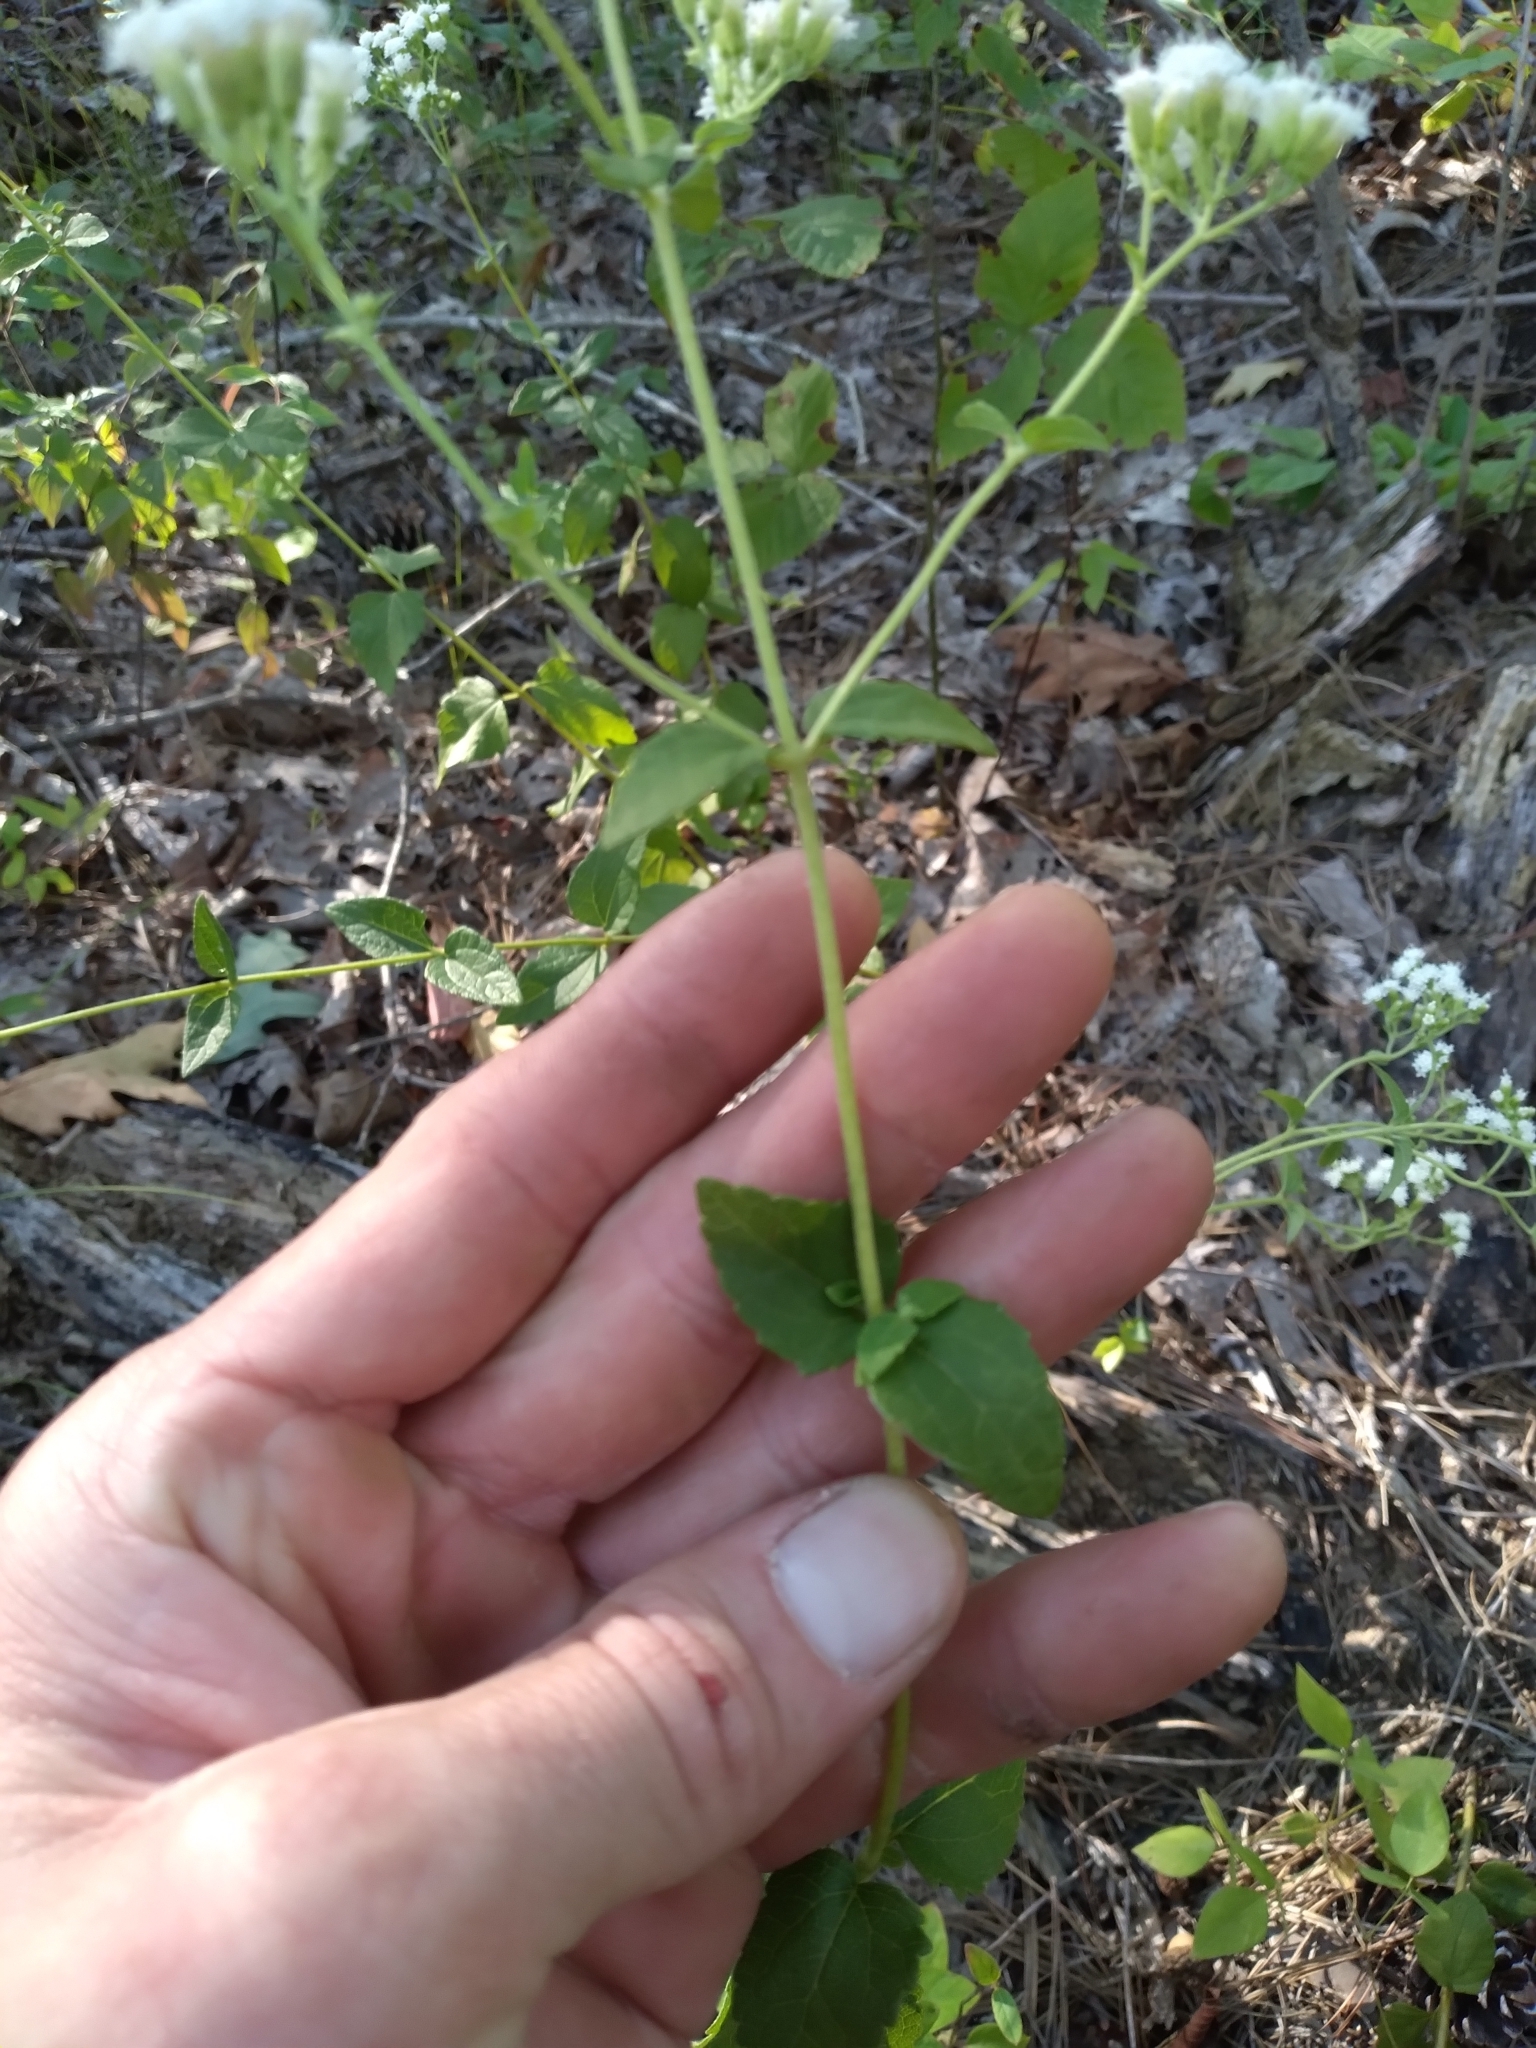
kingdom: Plantae
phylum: Tracheophyta
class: Magnoliopsida
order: Asterales
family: Asteraceae
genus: Ageratina
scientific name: Ageratina aromatica
